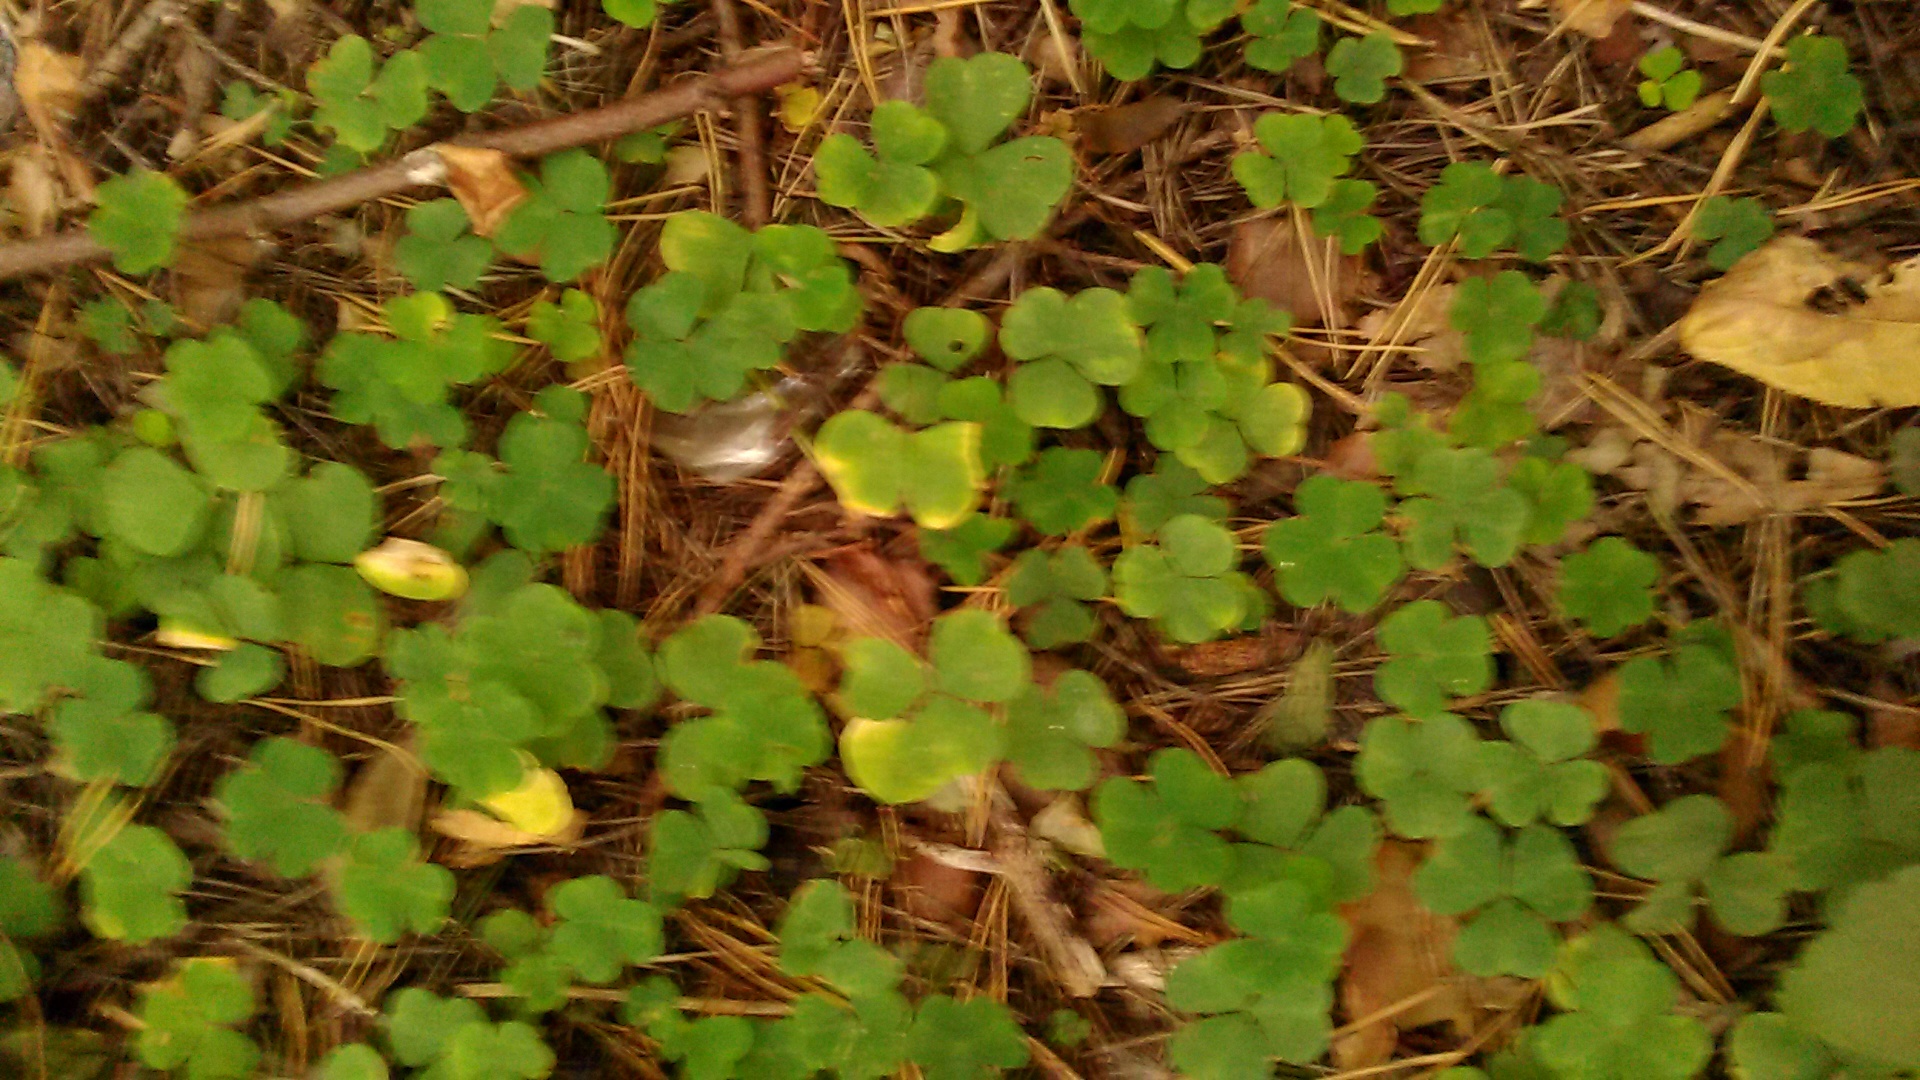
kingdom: Plantae
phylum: Tracheophyta
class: Magnoliopsida
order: Oxalidales
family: Oxalidaceae
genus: Oxalis
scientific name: Oxalis acetosella
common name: Wood-sorrel
